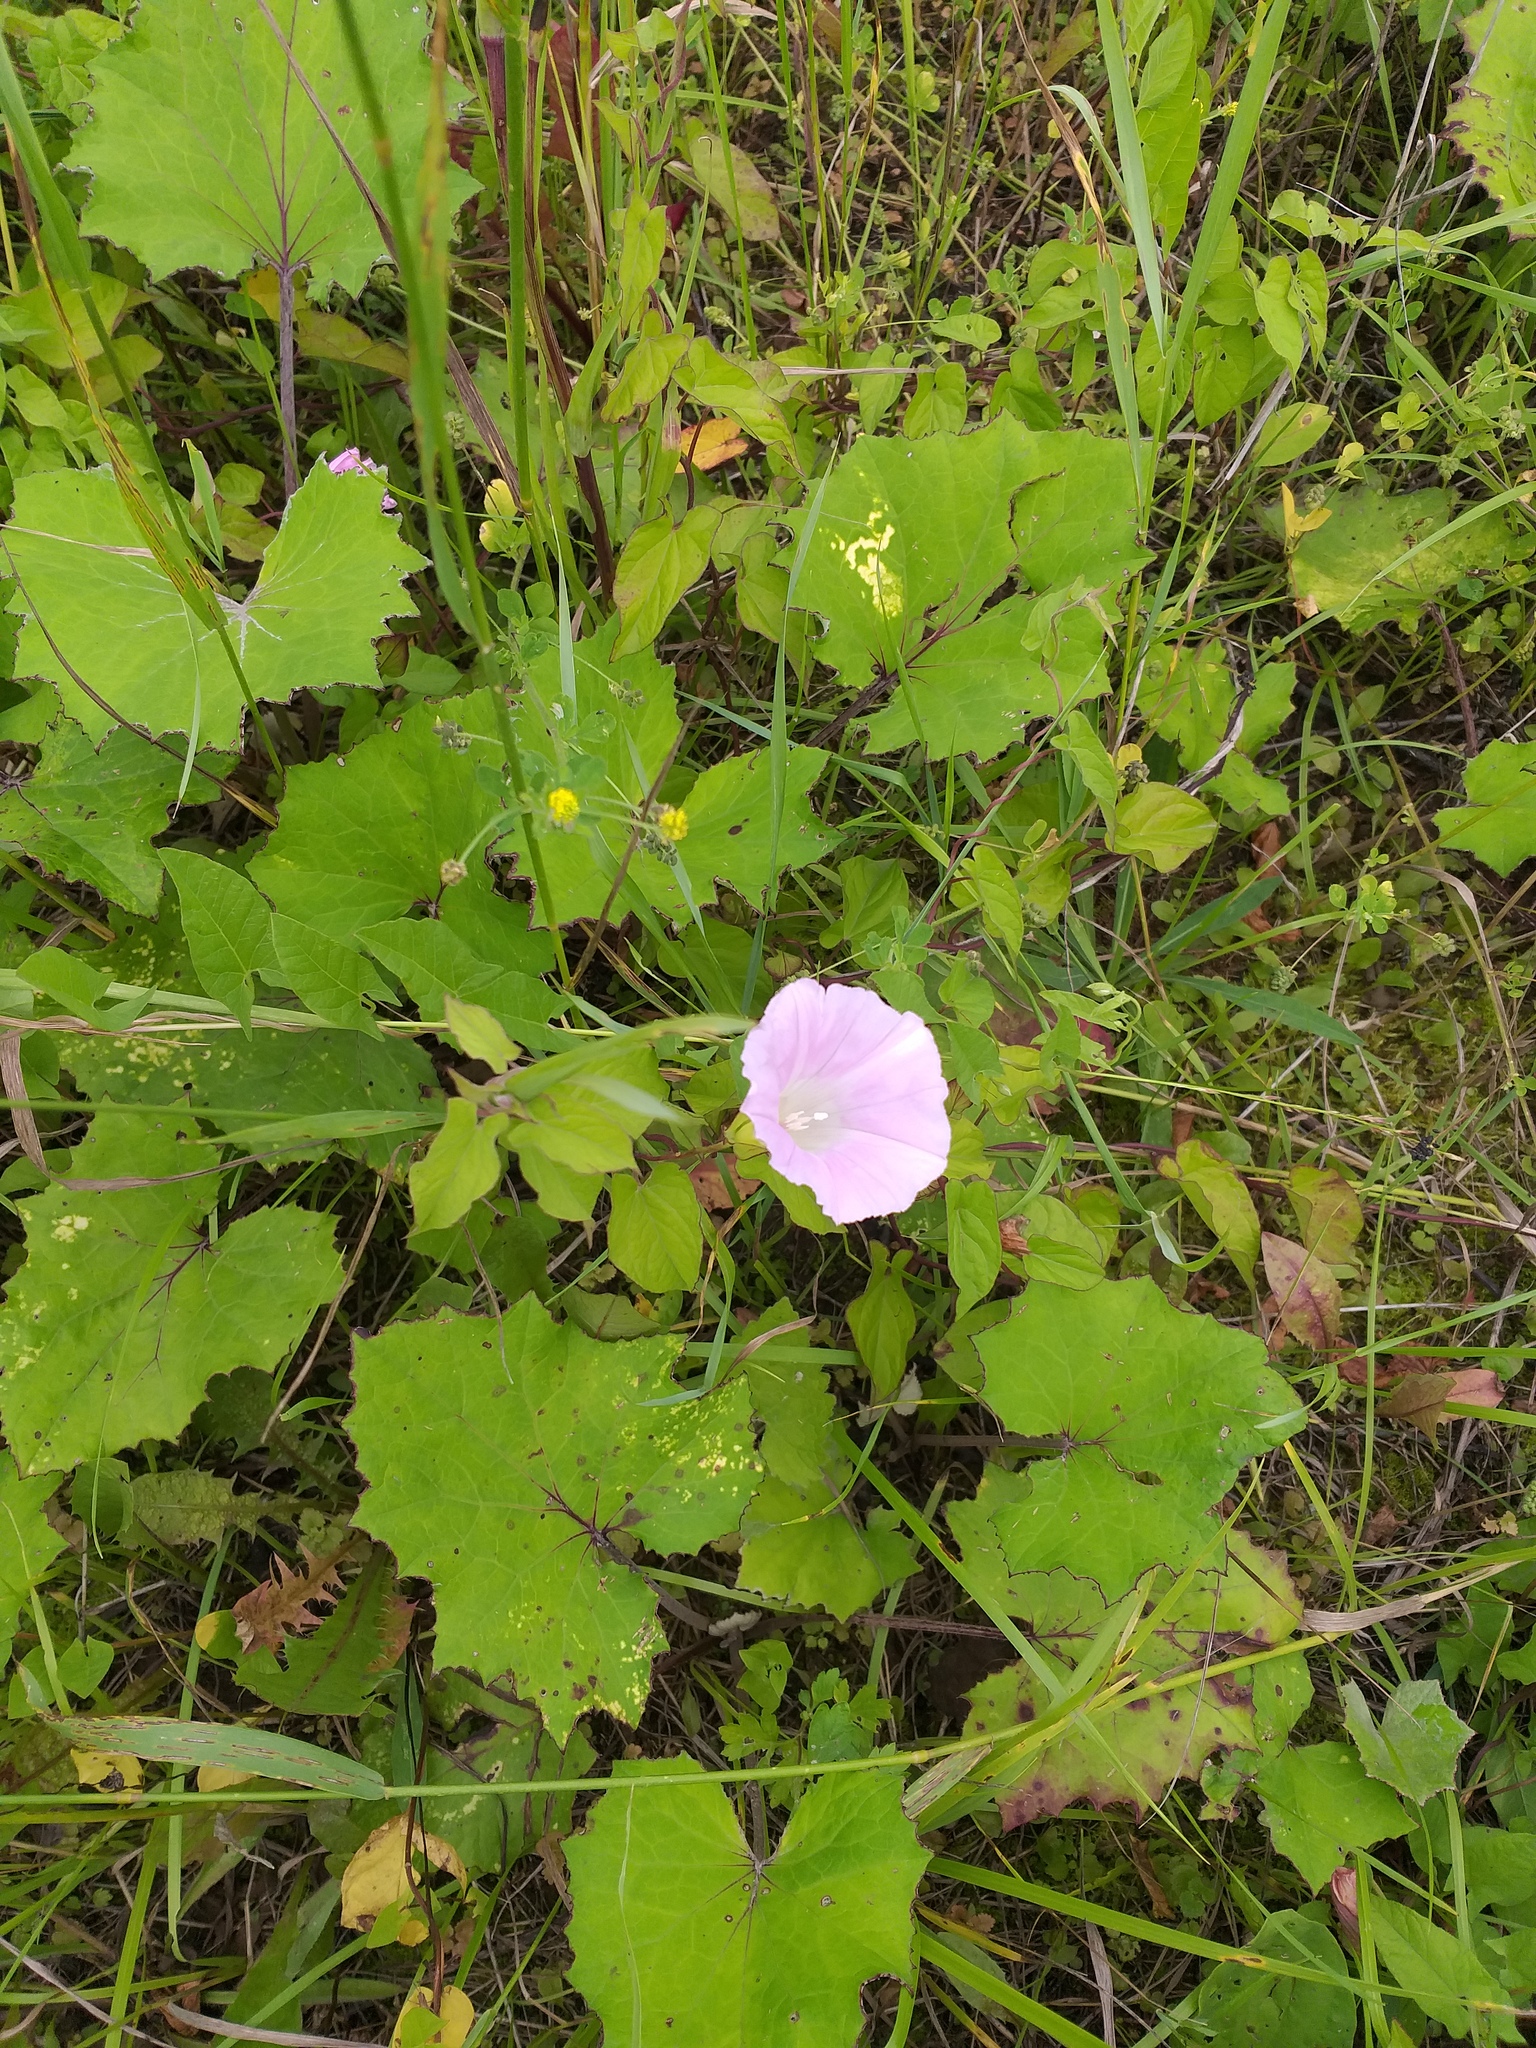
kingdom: Plantae
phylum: Tracheophyta
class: Magnoliopsida
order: Solanales
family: Convolvulaceae
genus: Calystegia
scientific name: Calystegia sepium
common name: Hedge bindweed
